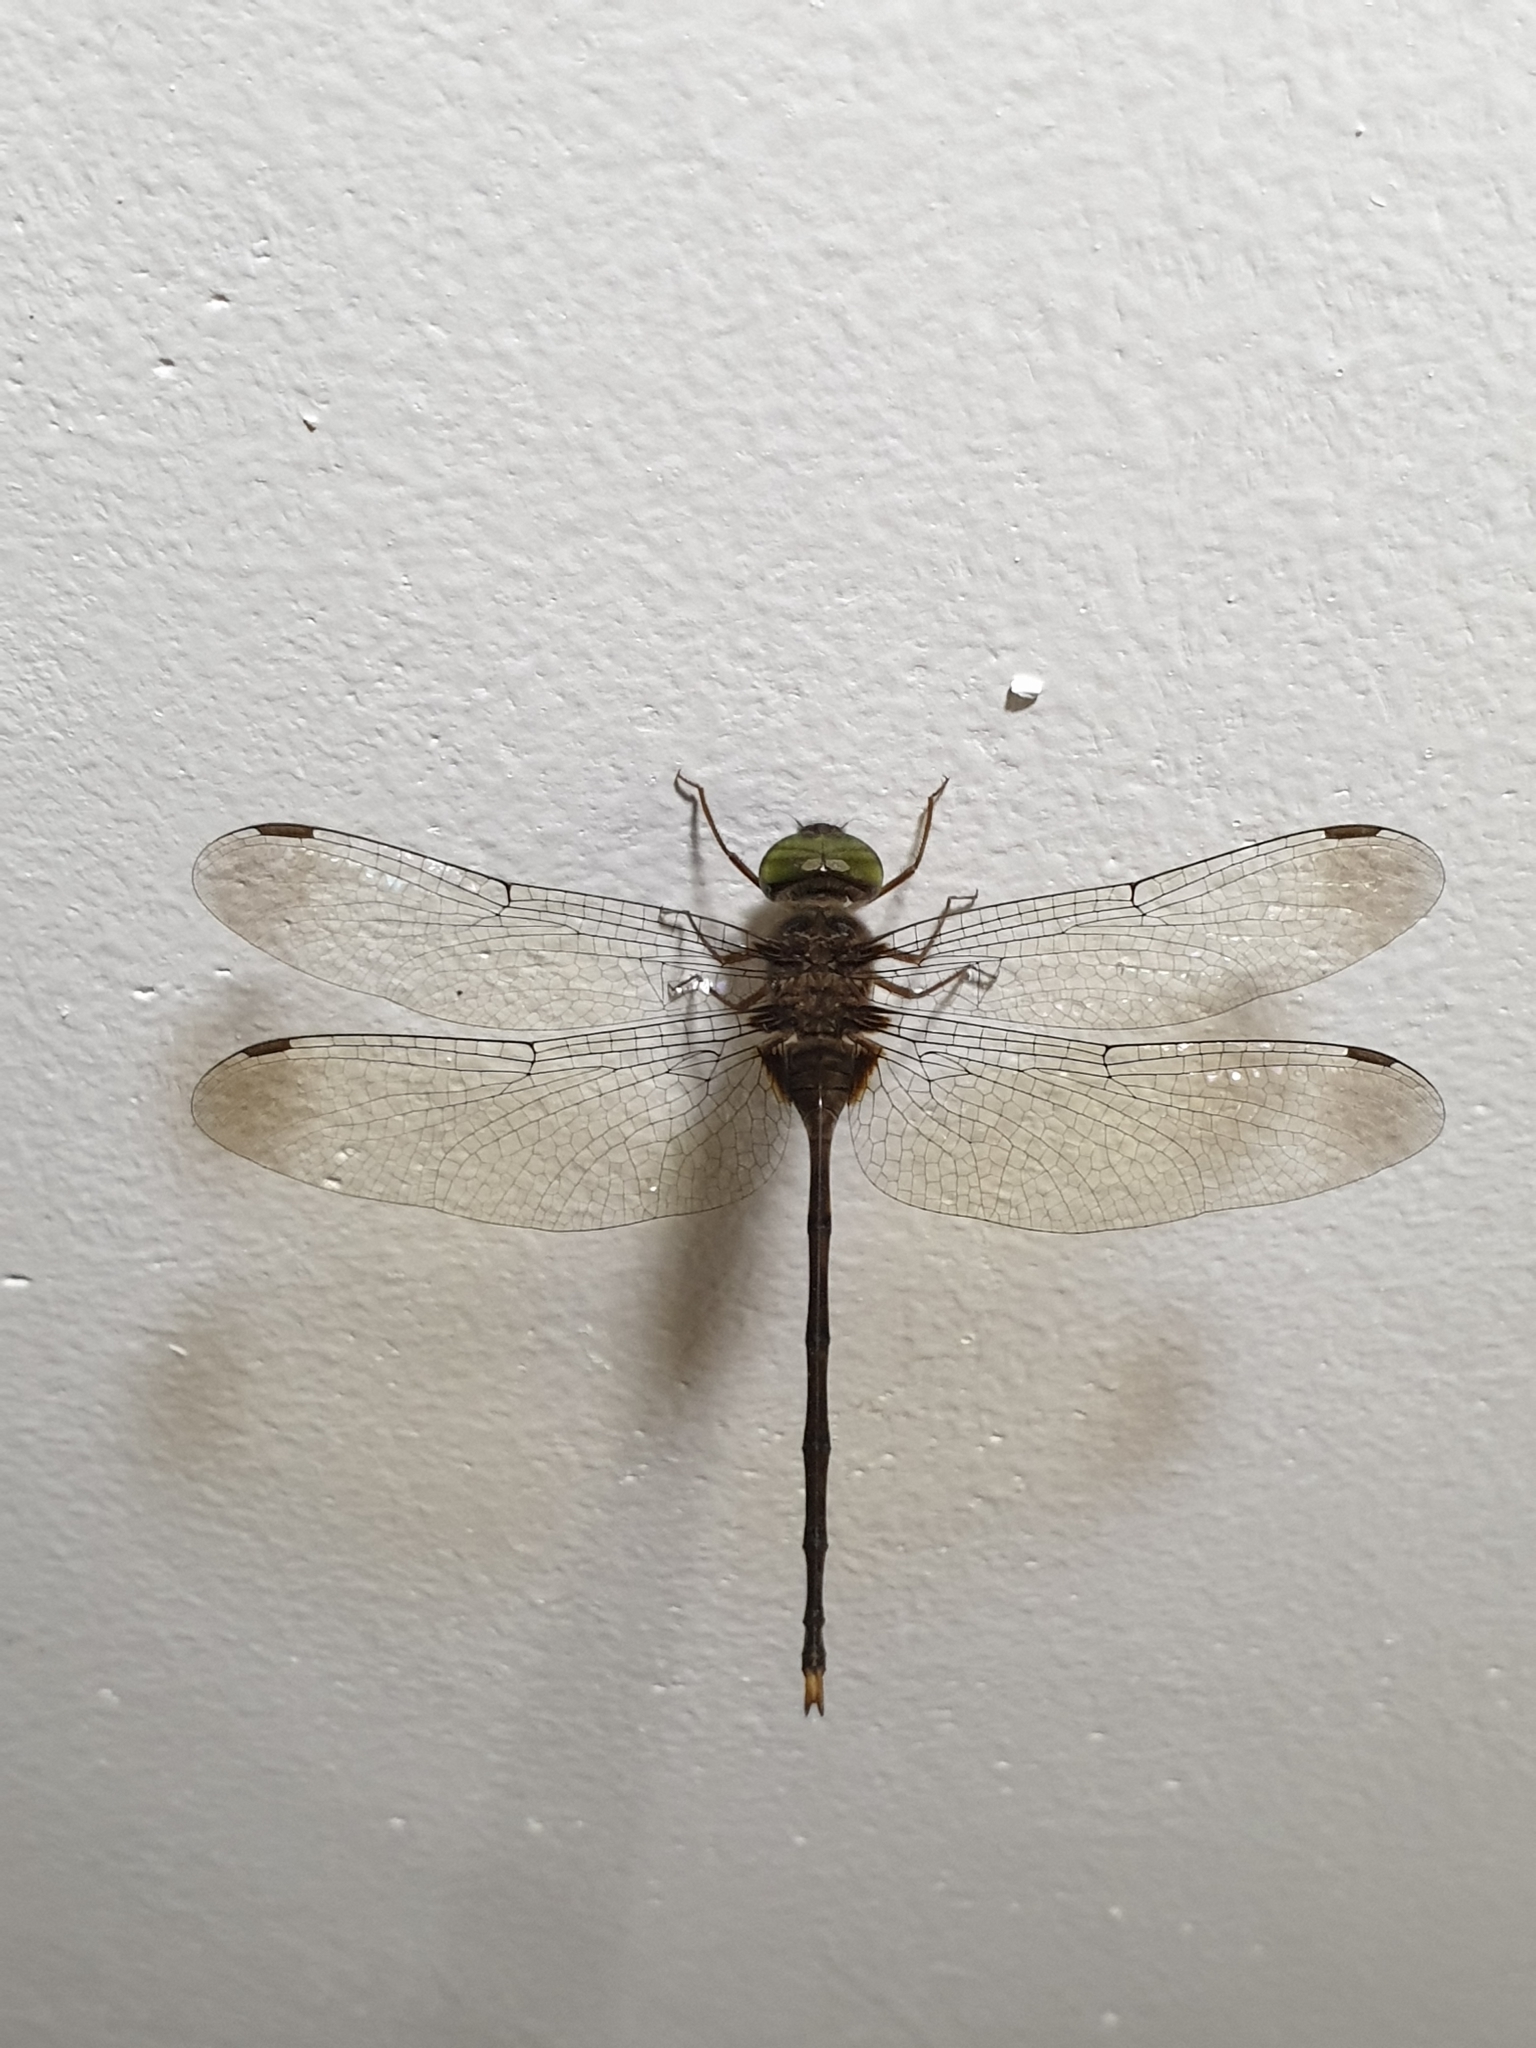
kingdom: Animalia
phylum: Arthropoda
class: Insecta
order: Odonata
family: Libellulidae
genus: Zyxomma
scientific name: Zyxomma petiolatum
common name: Dingy dusk-darter
